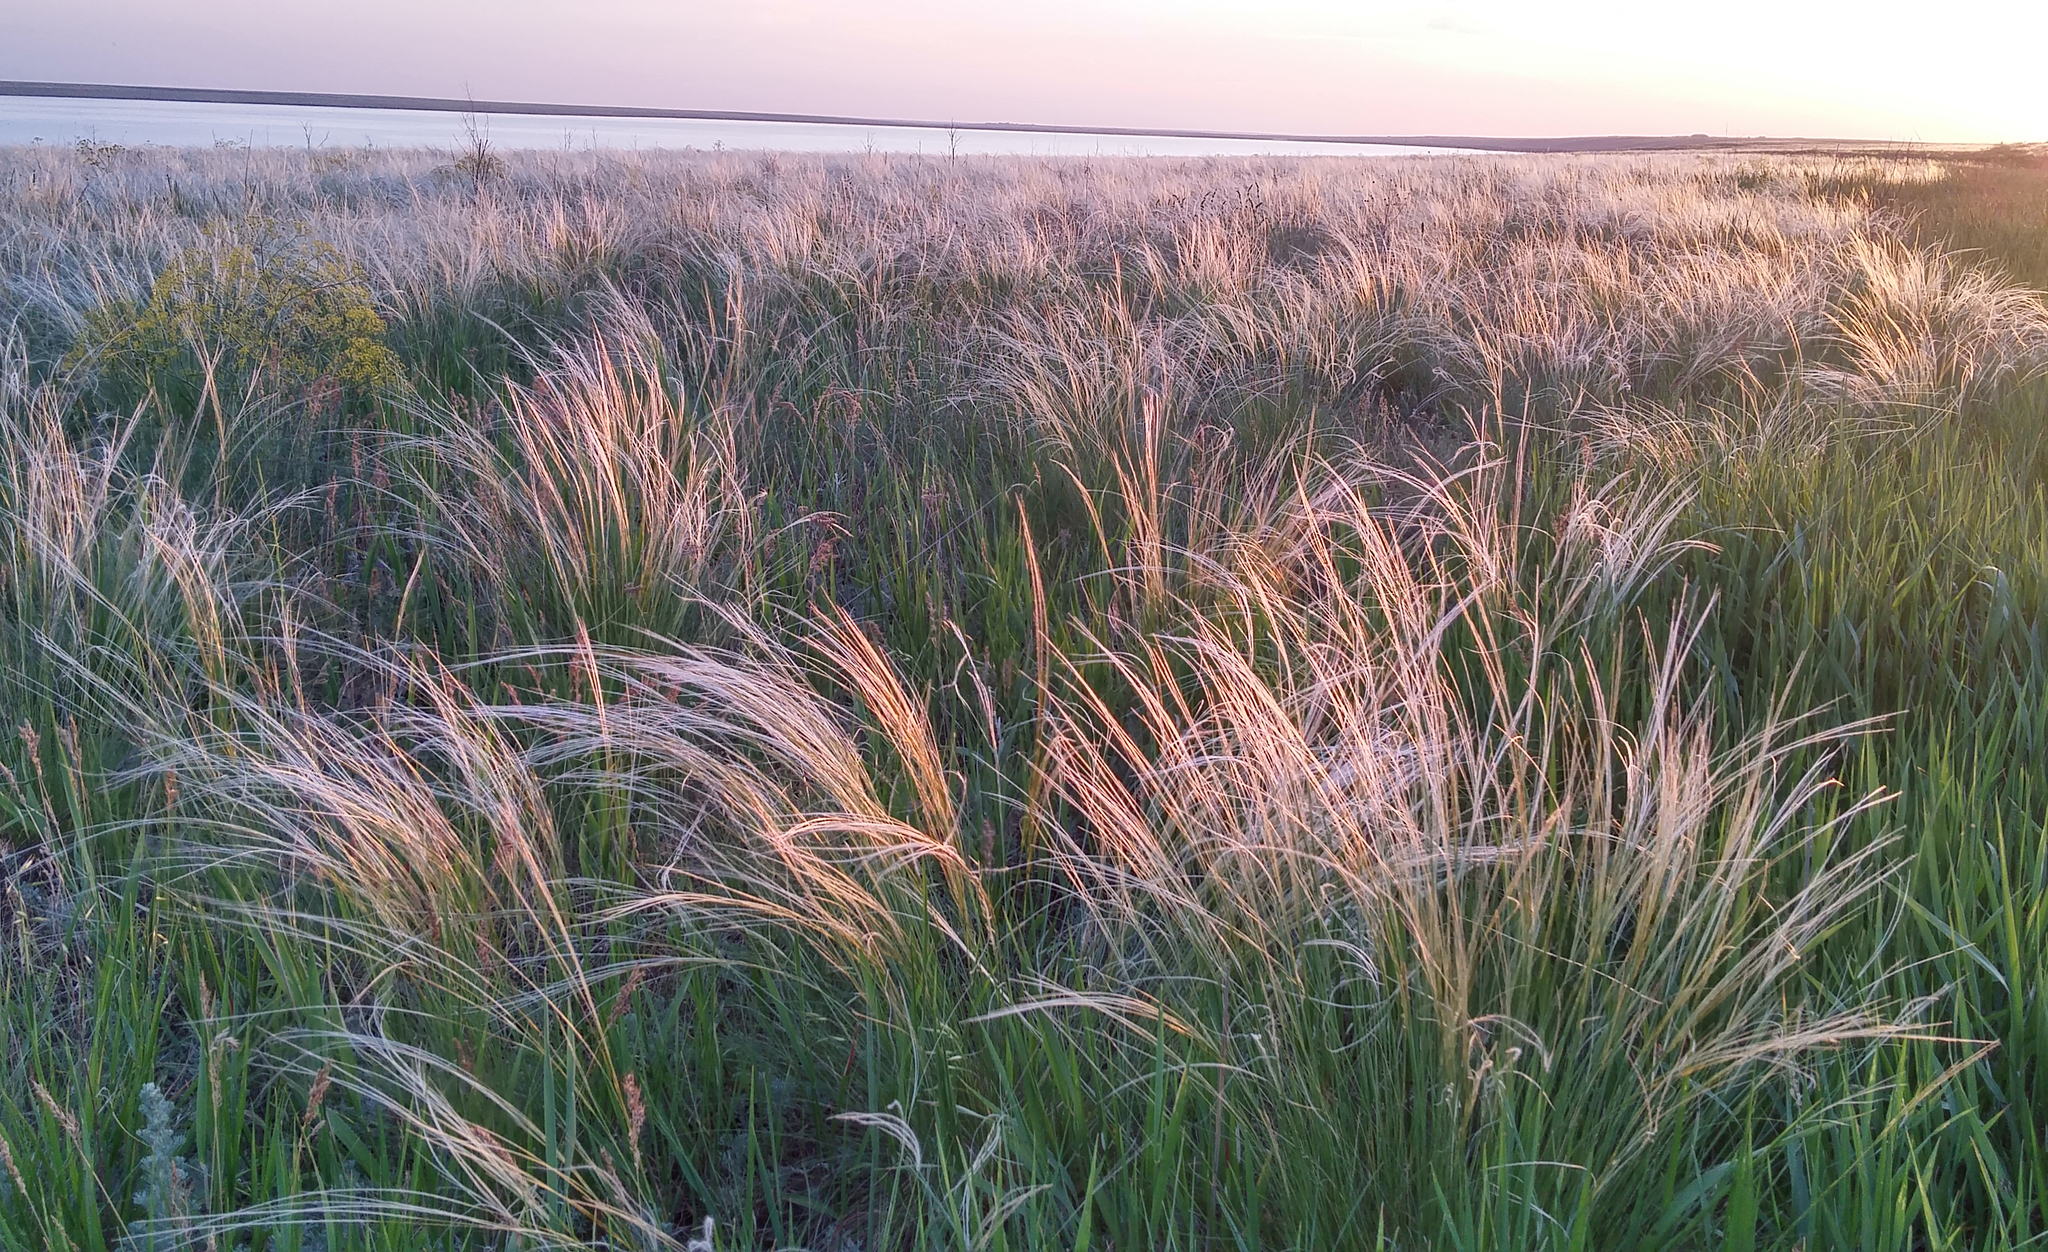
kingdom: Plantae
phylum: Tracheophyta
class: Liliopsida
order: Poales
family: Poaceae
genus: Stipa
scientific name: Stipa
